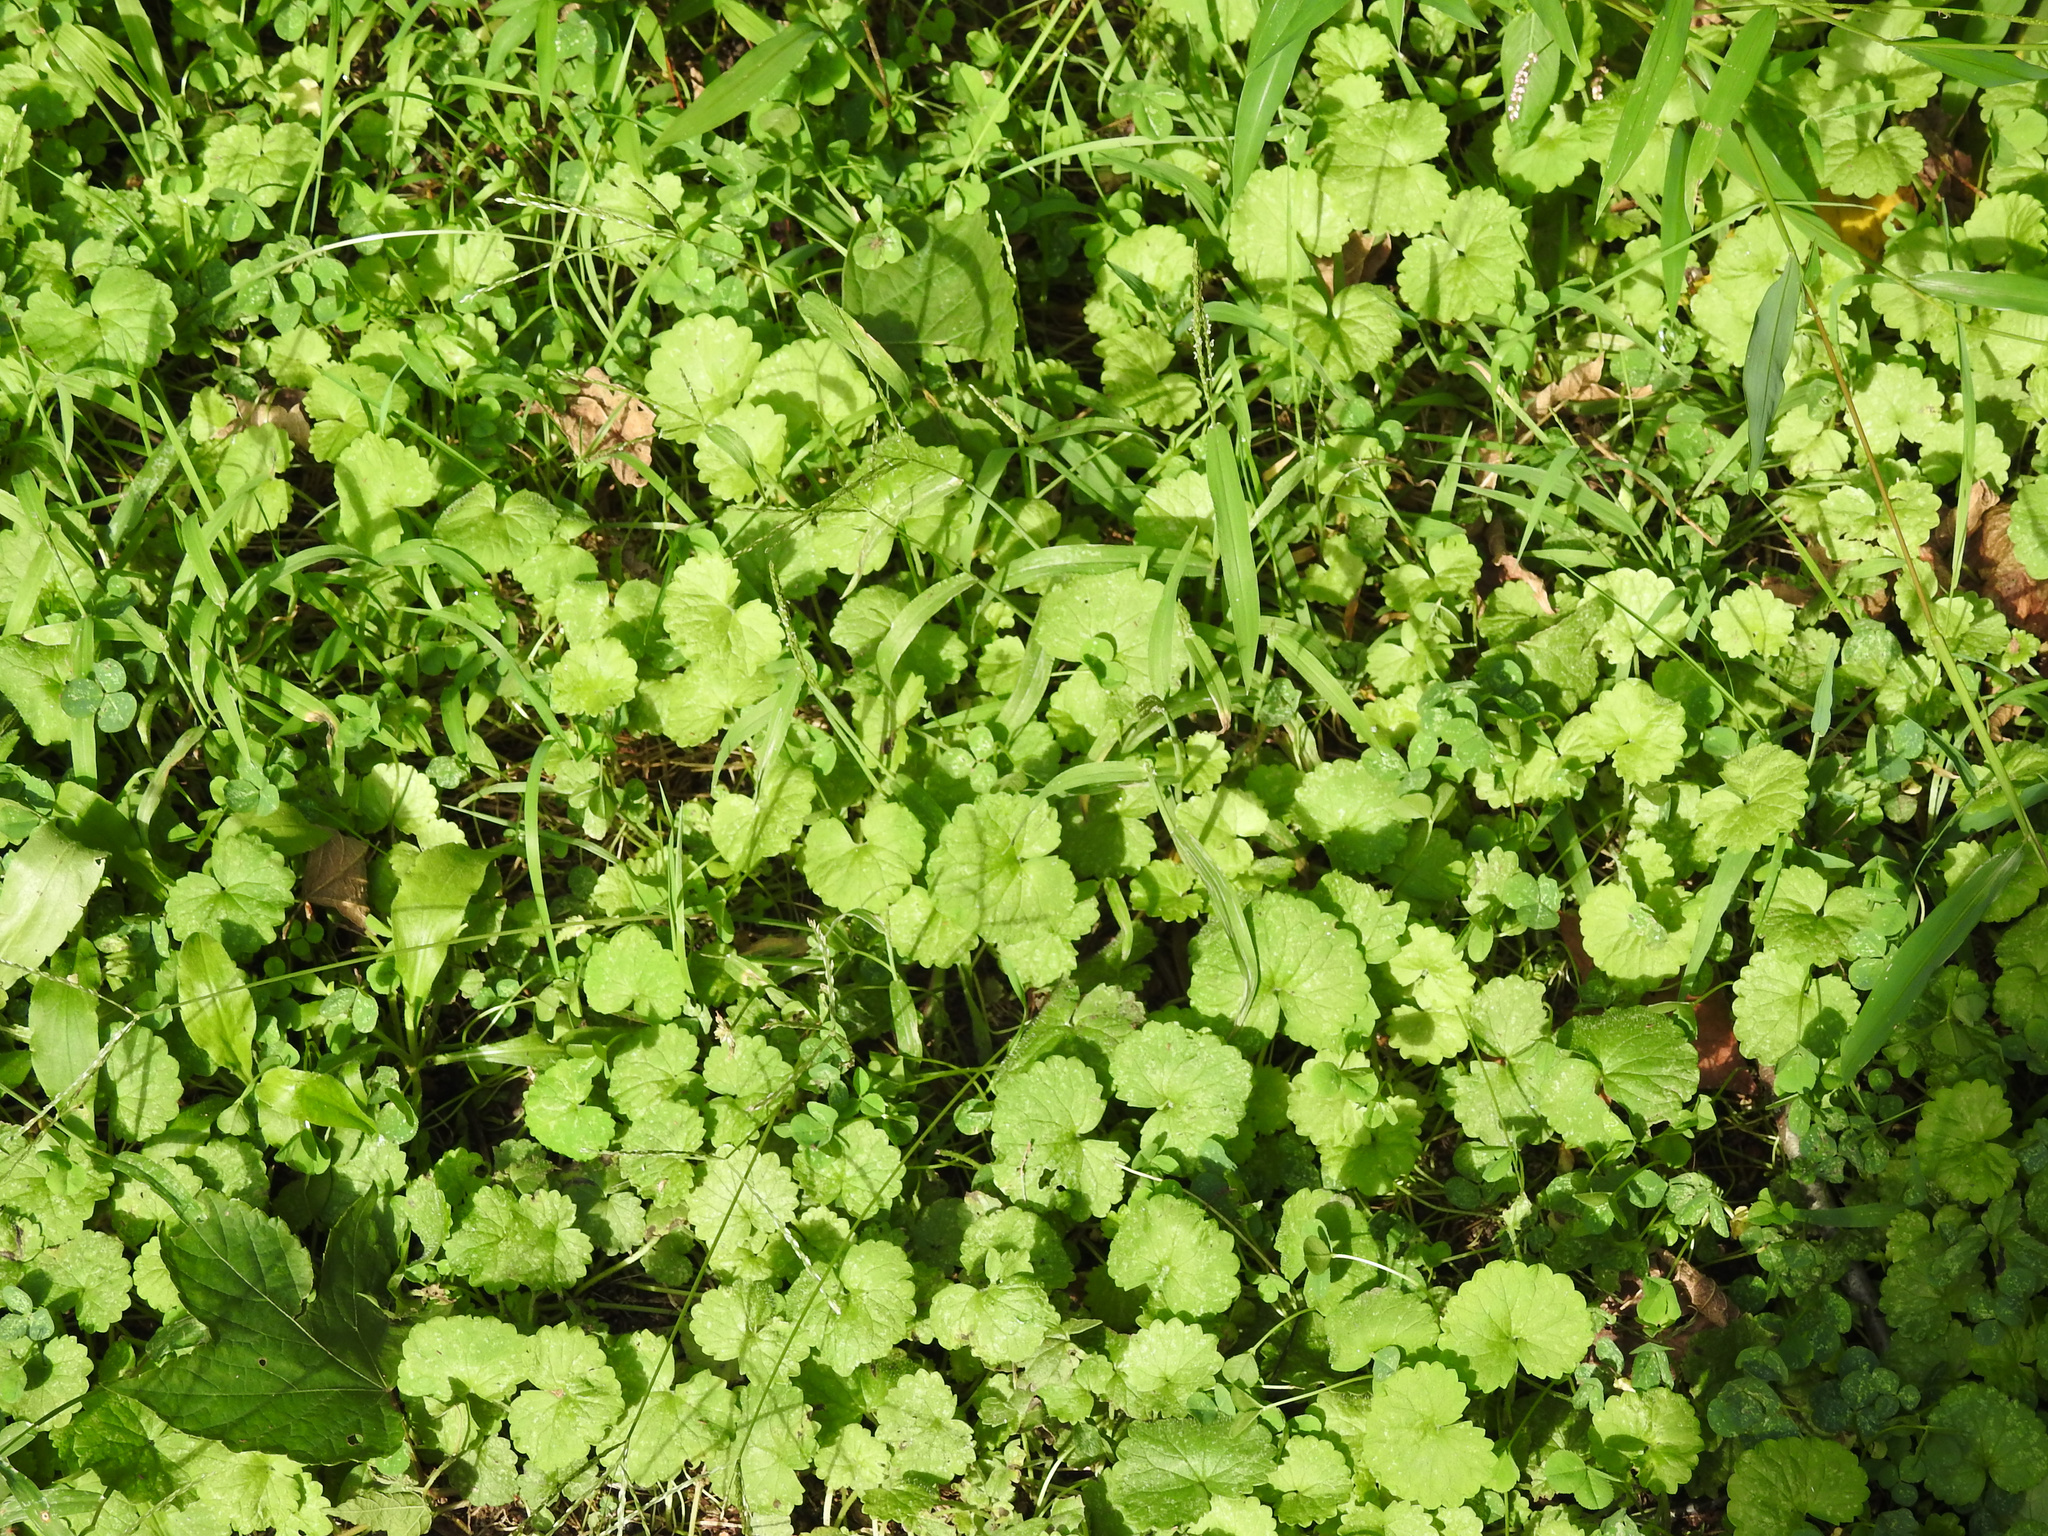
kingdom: Plantae
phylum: Tracheophyta
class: Magnoliopsida
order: Lamiales
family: Lamiaceae
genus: Glechoma
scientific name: Glechoma hederacea
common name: Ground ivy
